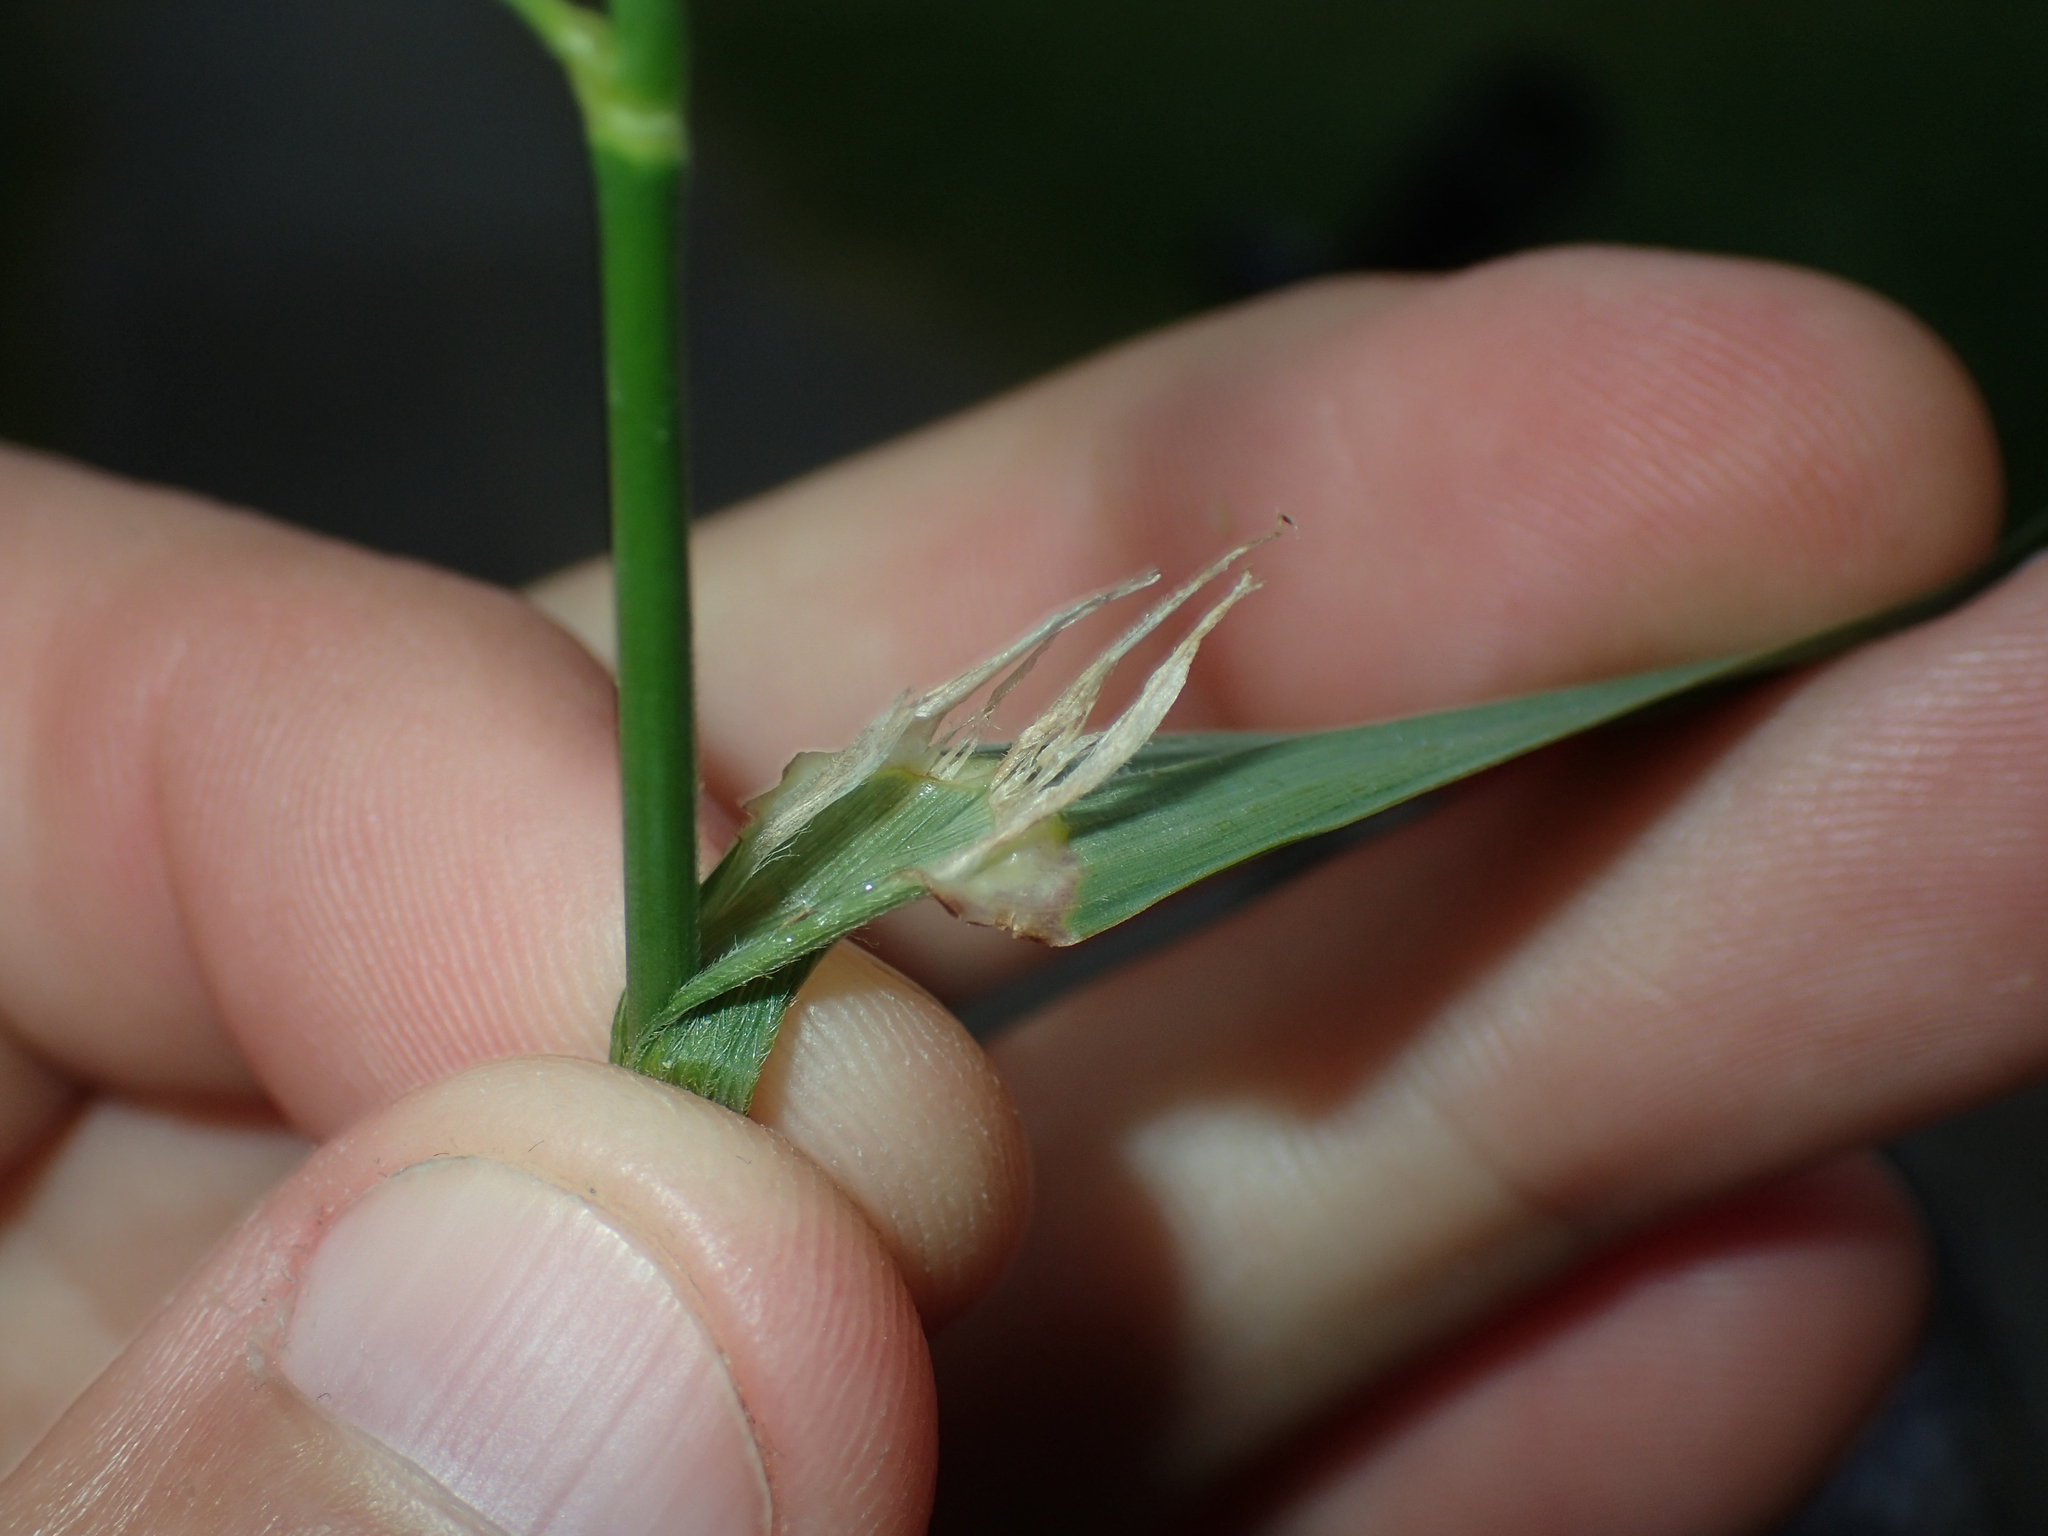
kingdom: Plantae
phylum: Tracheophyta
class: Liliopsida
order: Poales
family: Poaceae
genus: Dactylis
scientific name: Dactylis glomerata
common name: Orchardgrass
